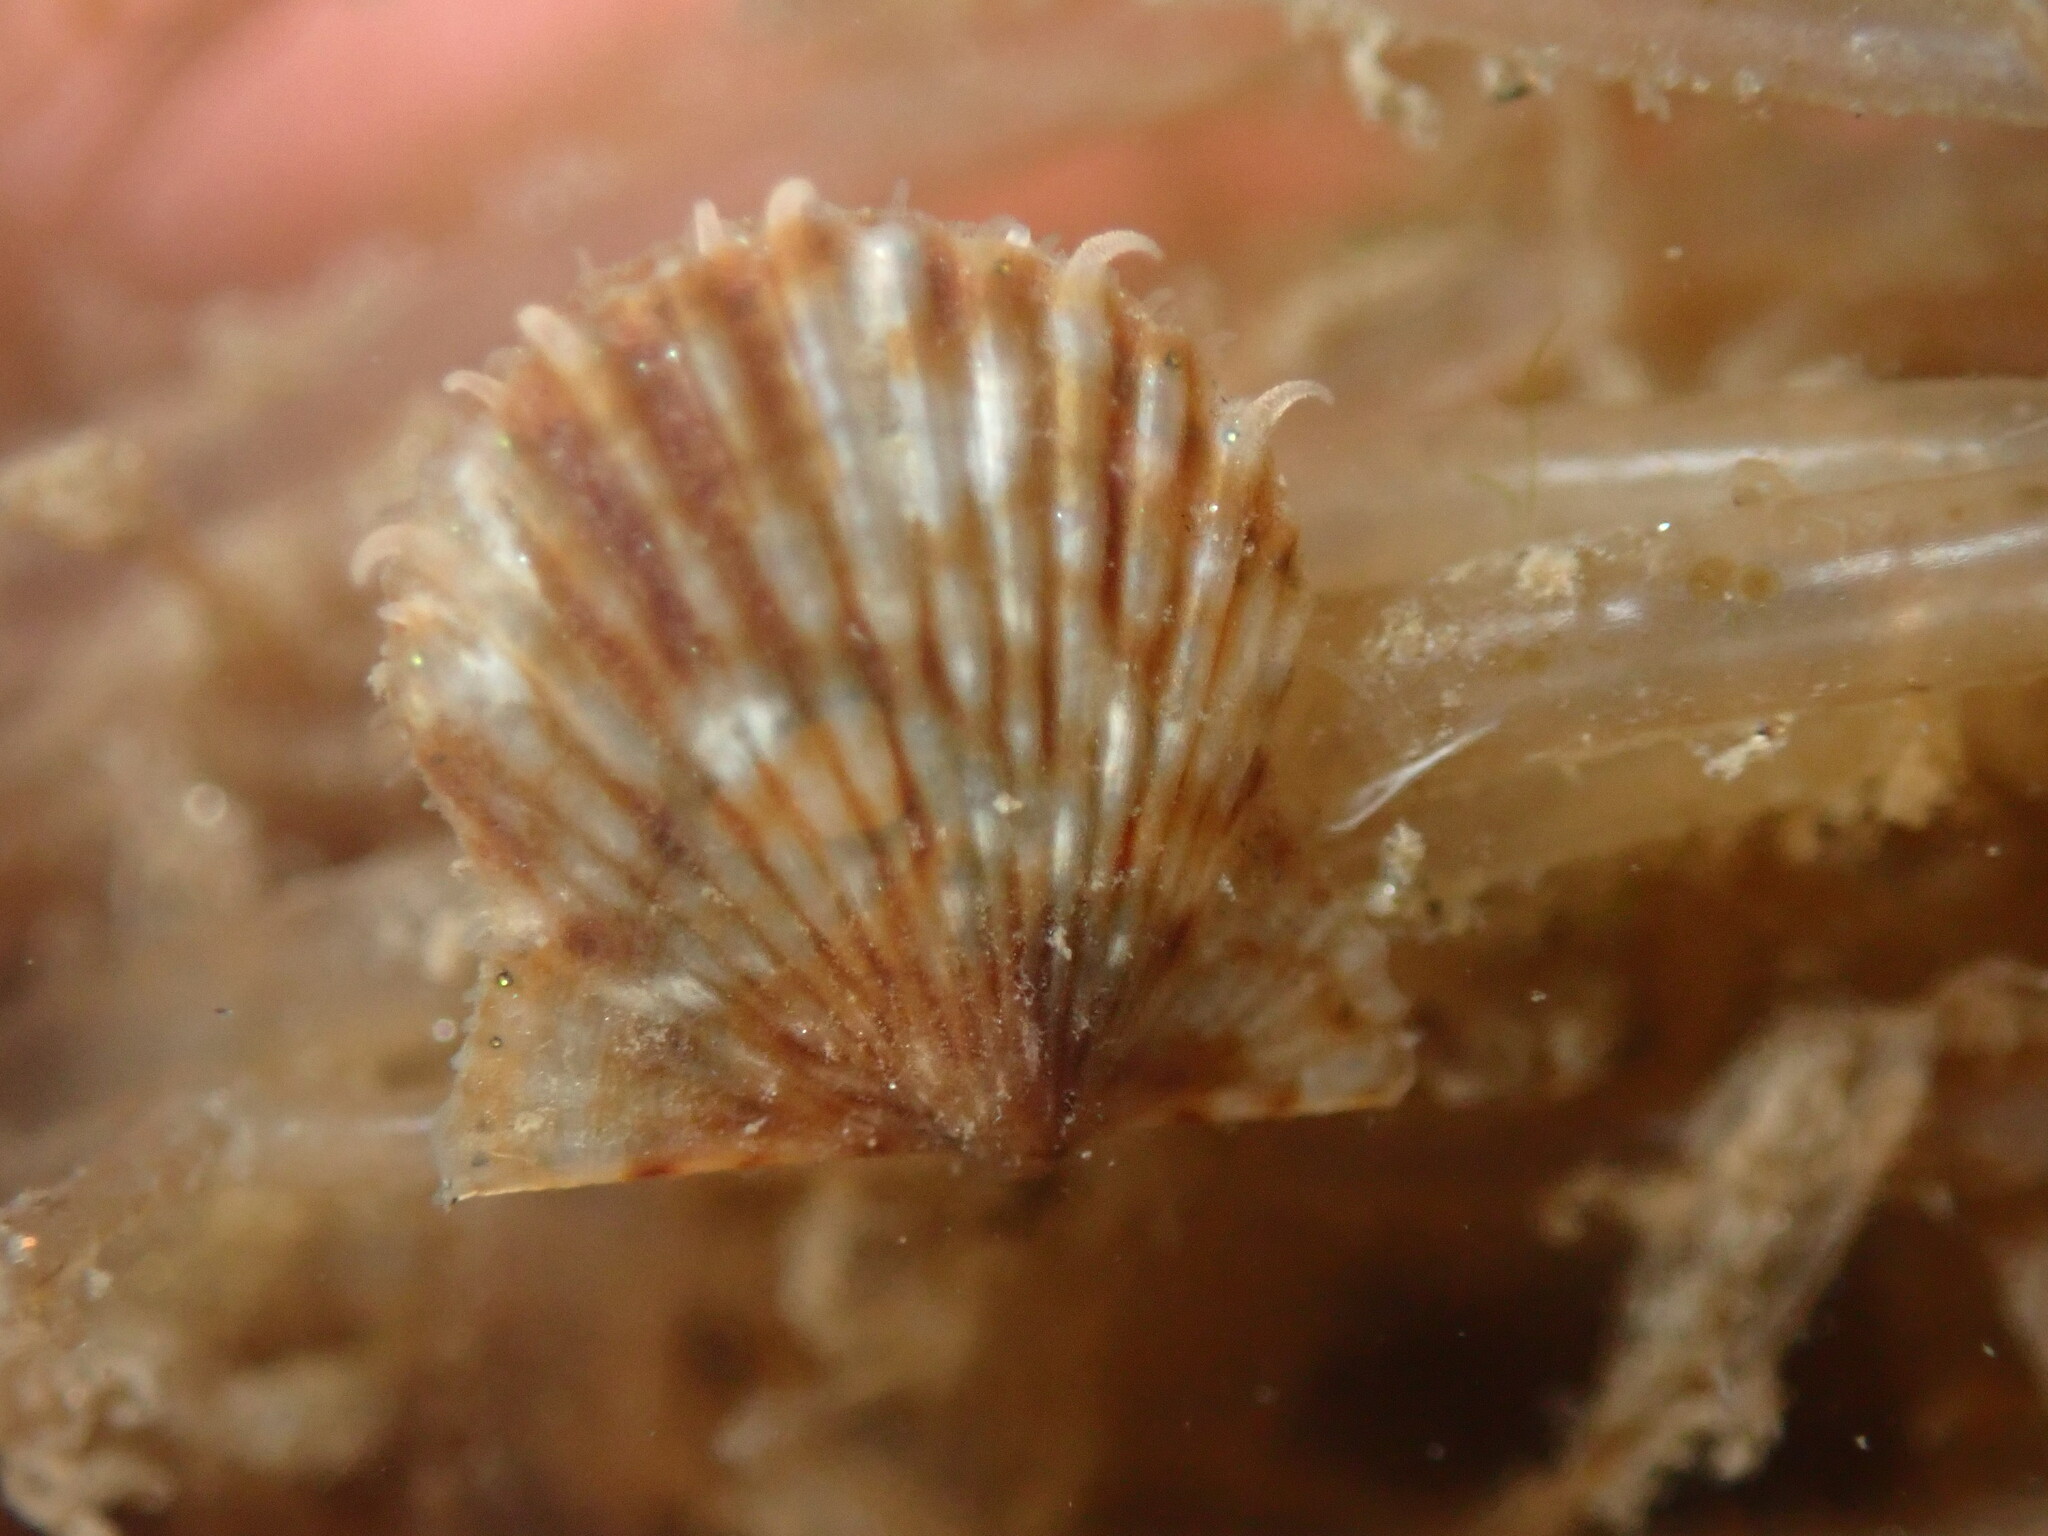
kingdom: Animalia
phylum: Mollusca
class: Bivalvia
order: Pectinida
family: Pectinidae
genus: Leptopecten
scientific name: Leptopecten latiauratus
